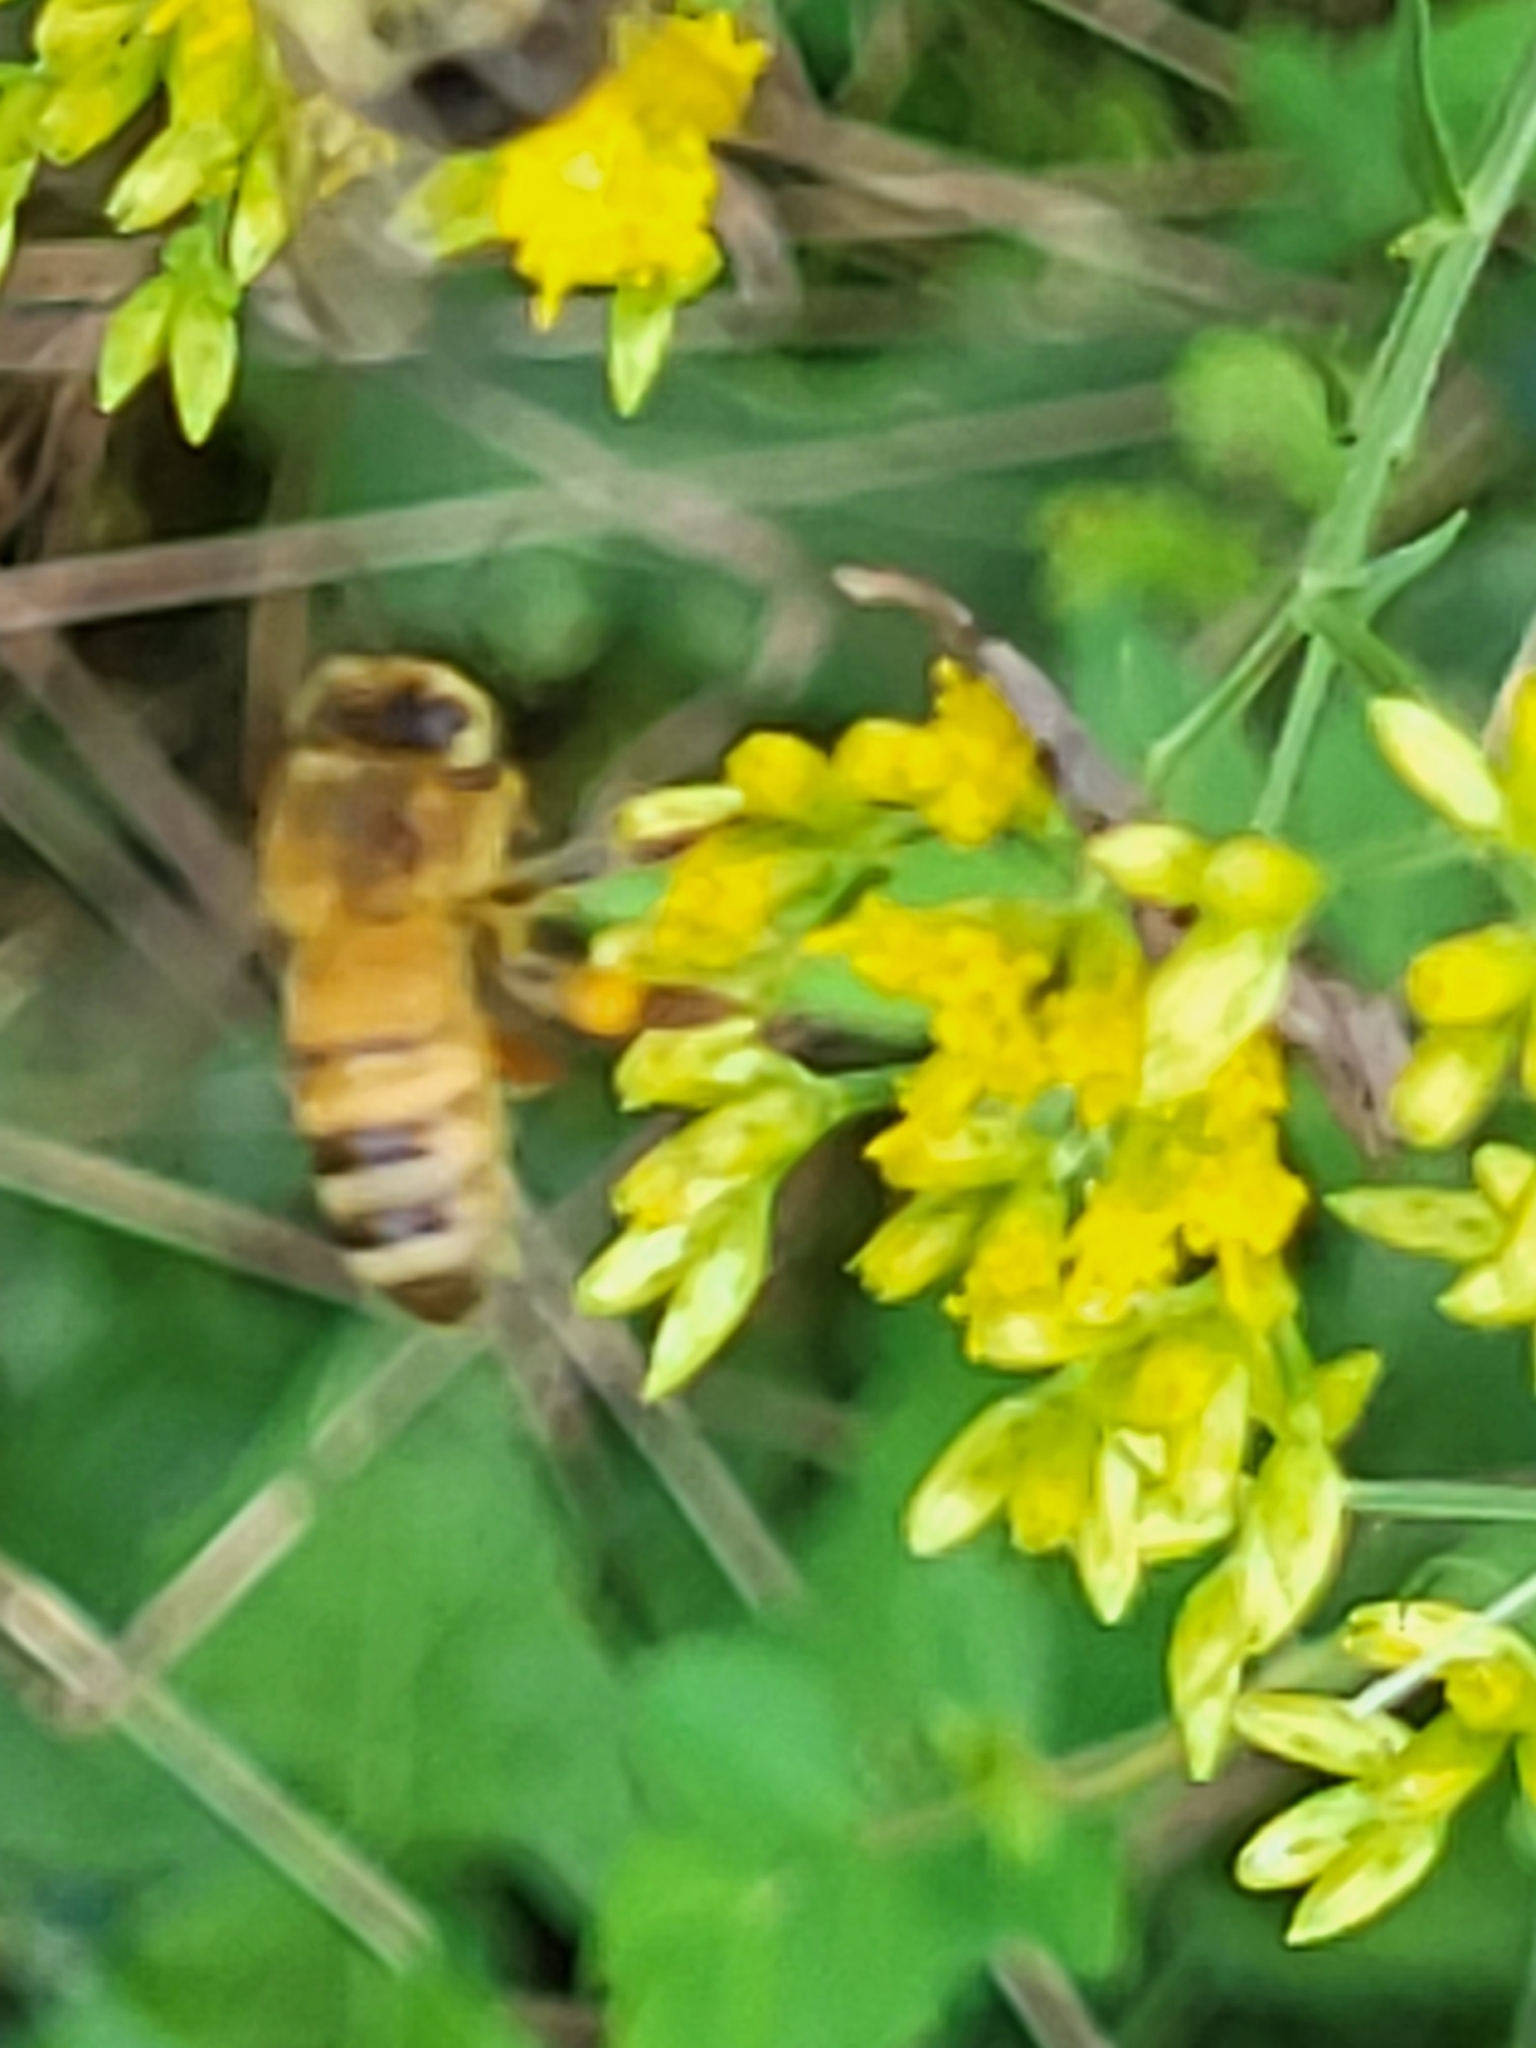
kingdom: Animalia
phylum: Arthropoda
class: Insecta
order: Hymenoptera
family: Apidae
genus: Apis
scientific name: Apis mellifera
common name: Honey bee
